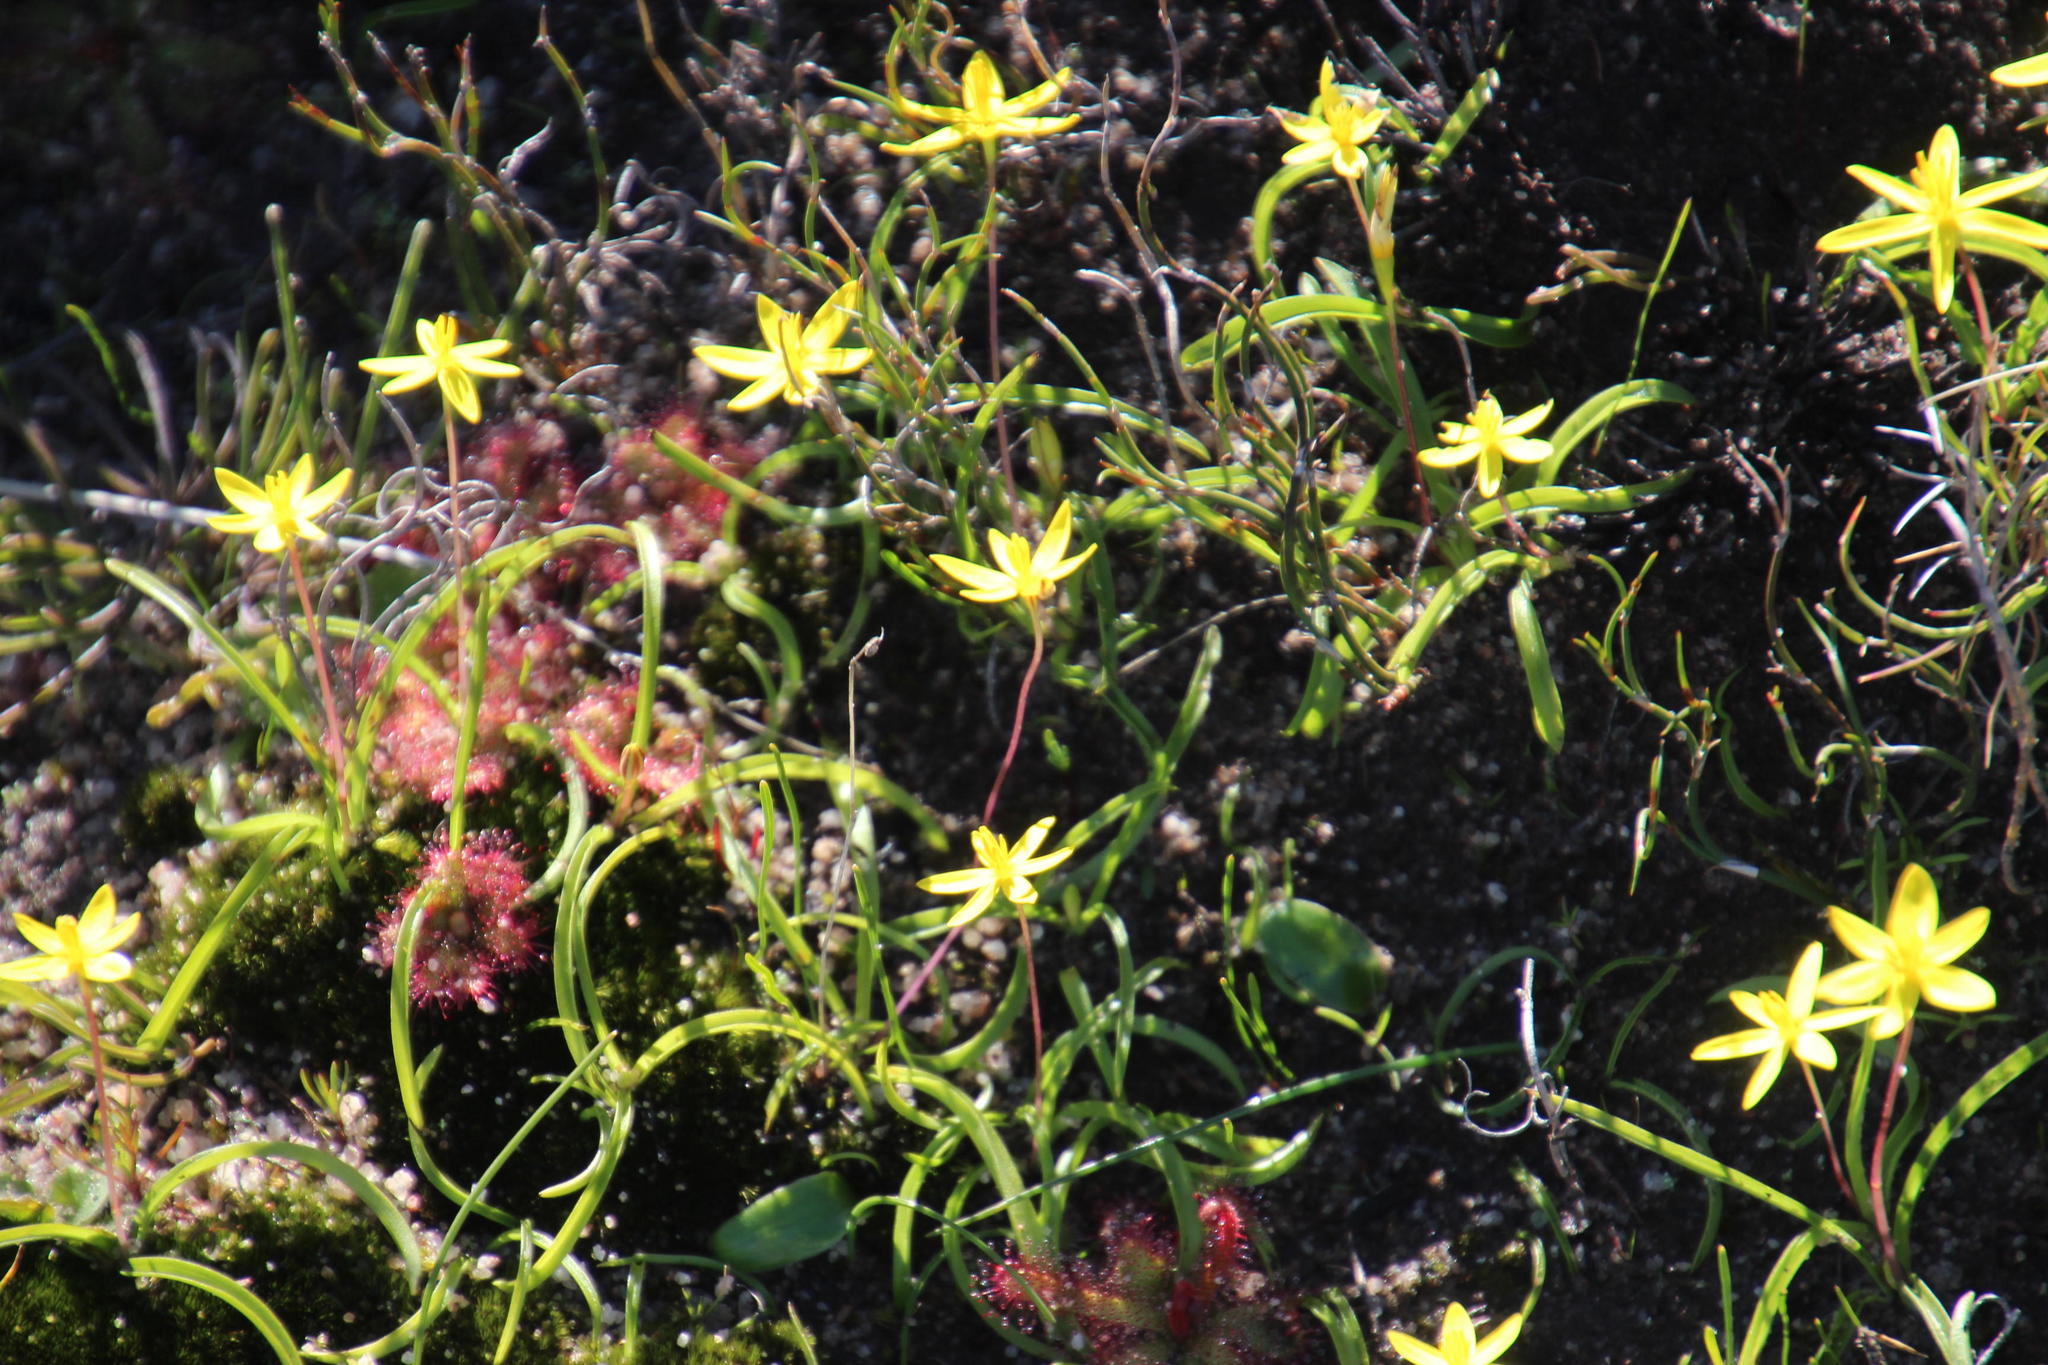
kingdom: Plantae
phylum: Tracheophyta
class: Liliopsida
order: Asparagales
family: Hypoxidaceae
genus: Pauridia
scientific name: Pauridia gracilipes
